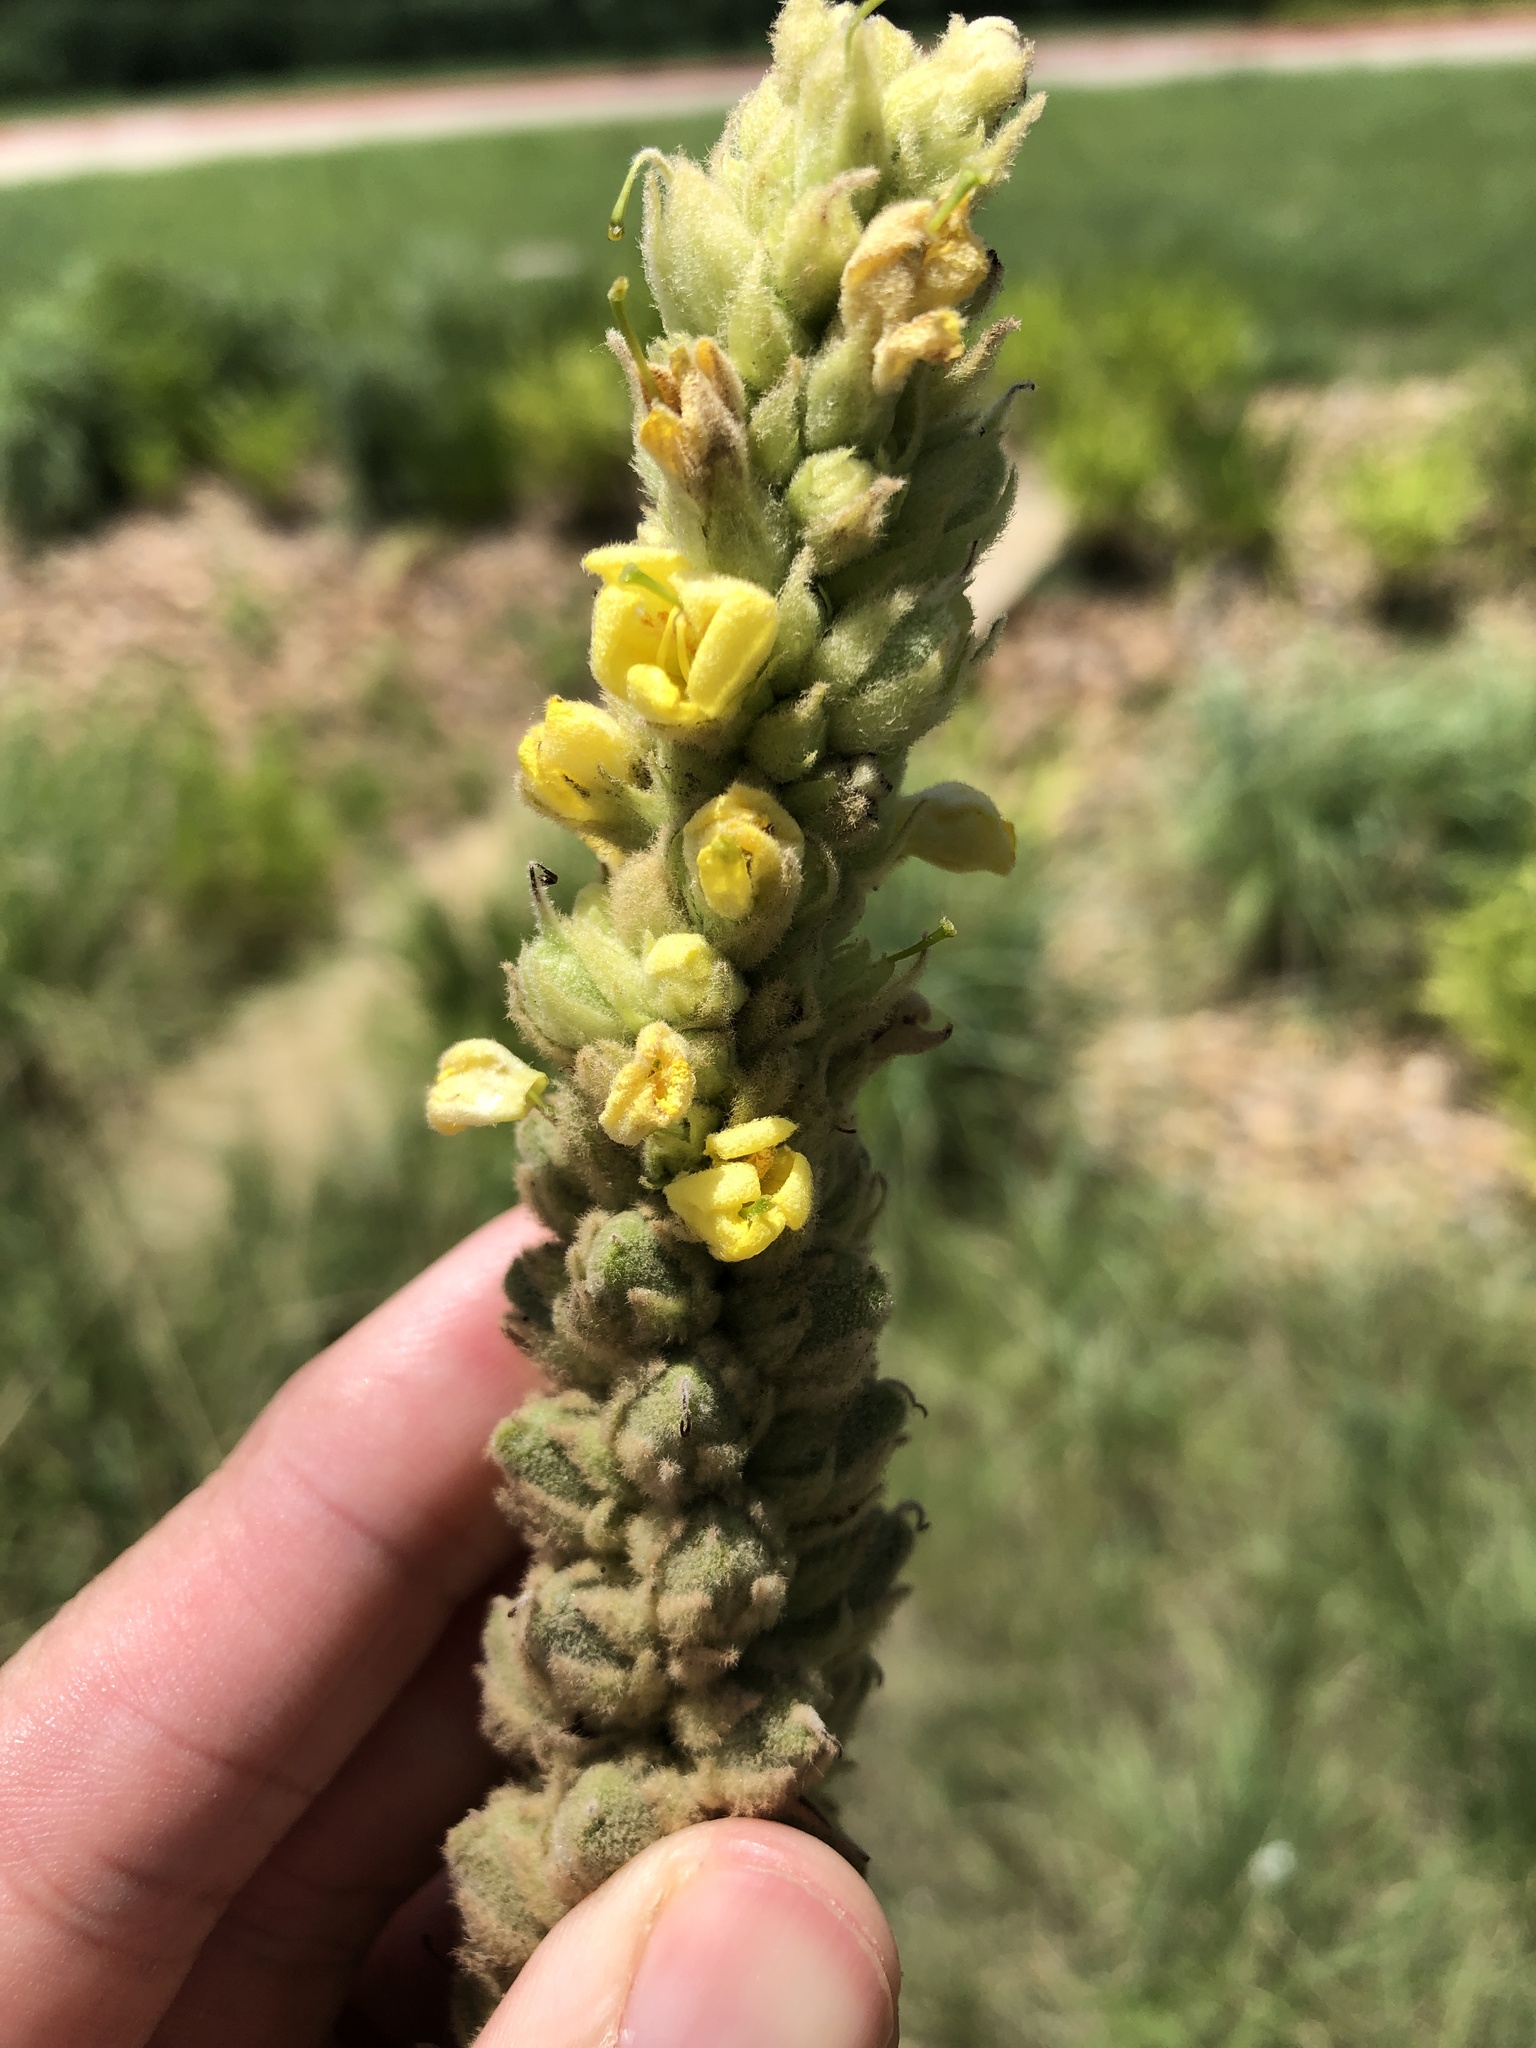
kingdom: Plantae
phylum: Tracheophyta
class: Magnoliopsida
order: Lamiales
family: Scrophulariaceae
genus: Verbascum
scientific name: Verbascum thapsus
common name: Common mullein
